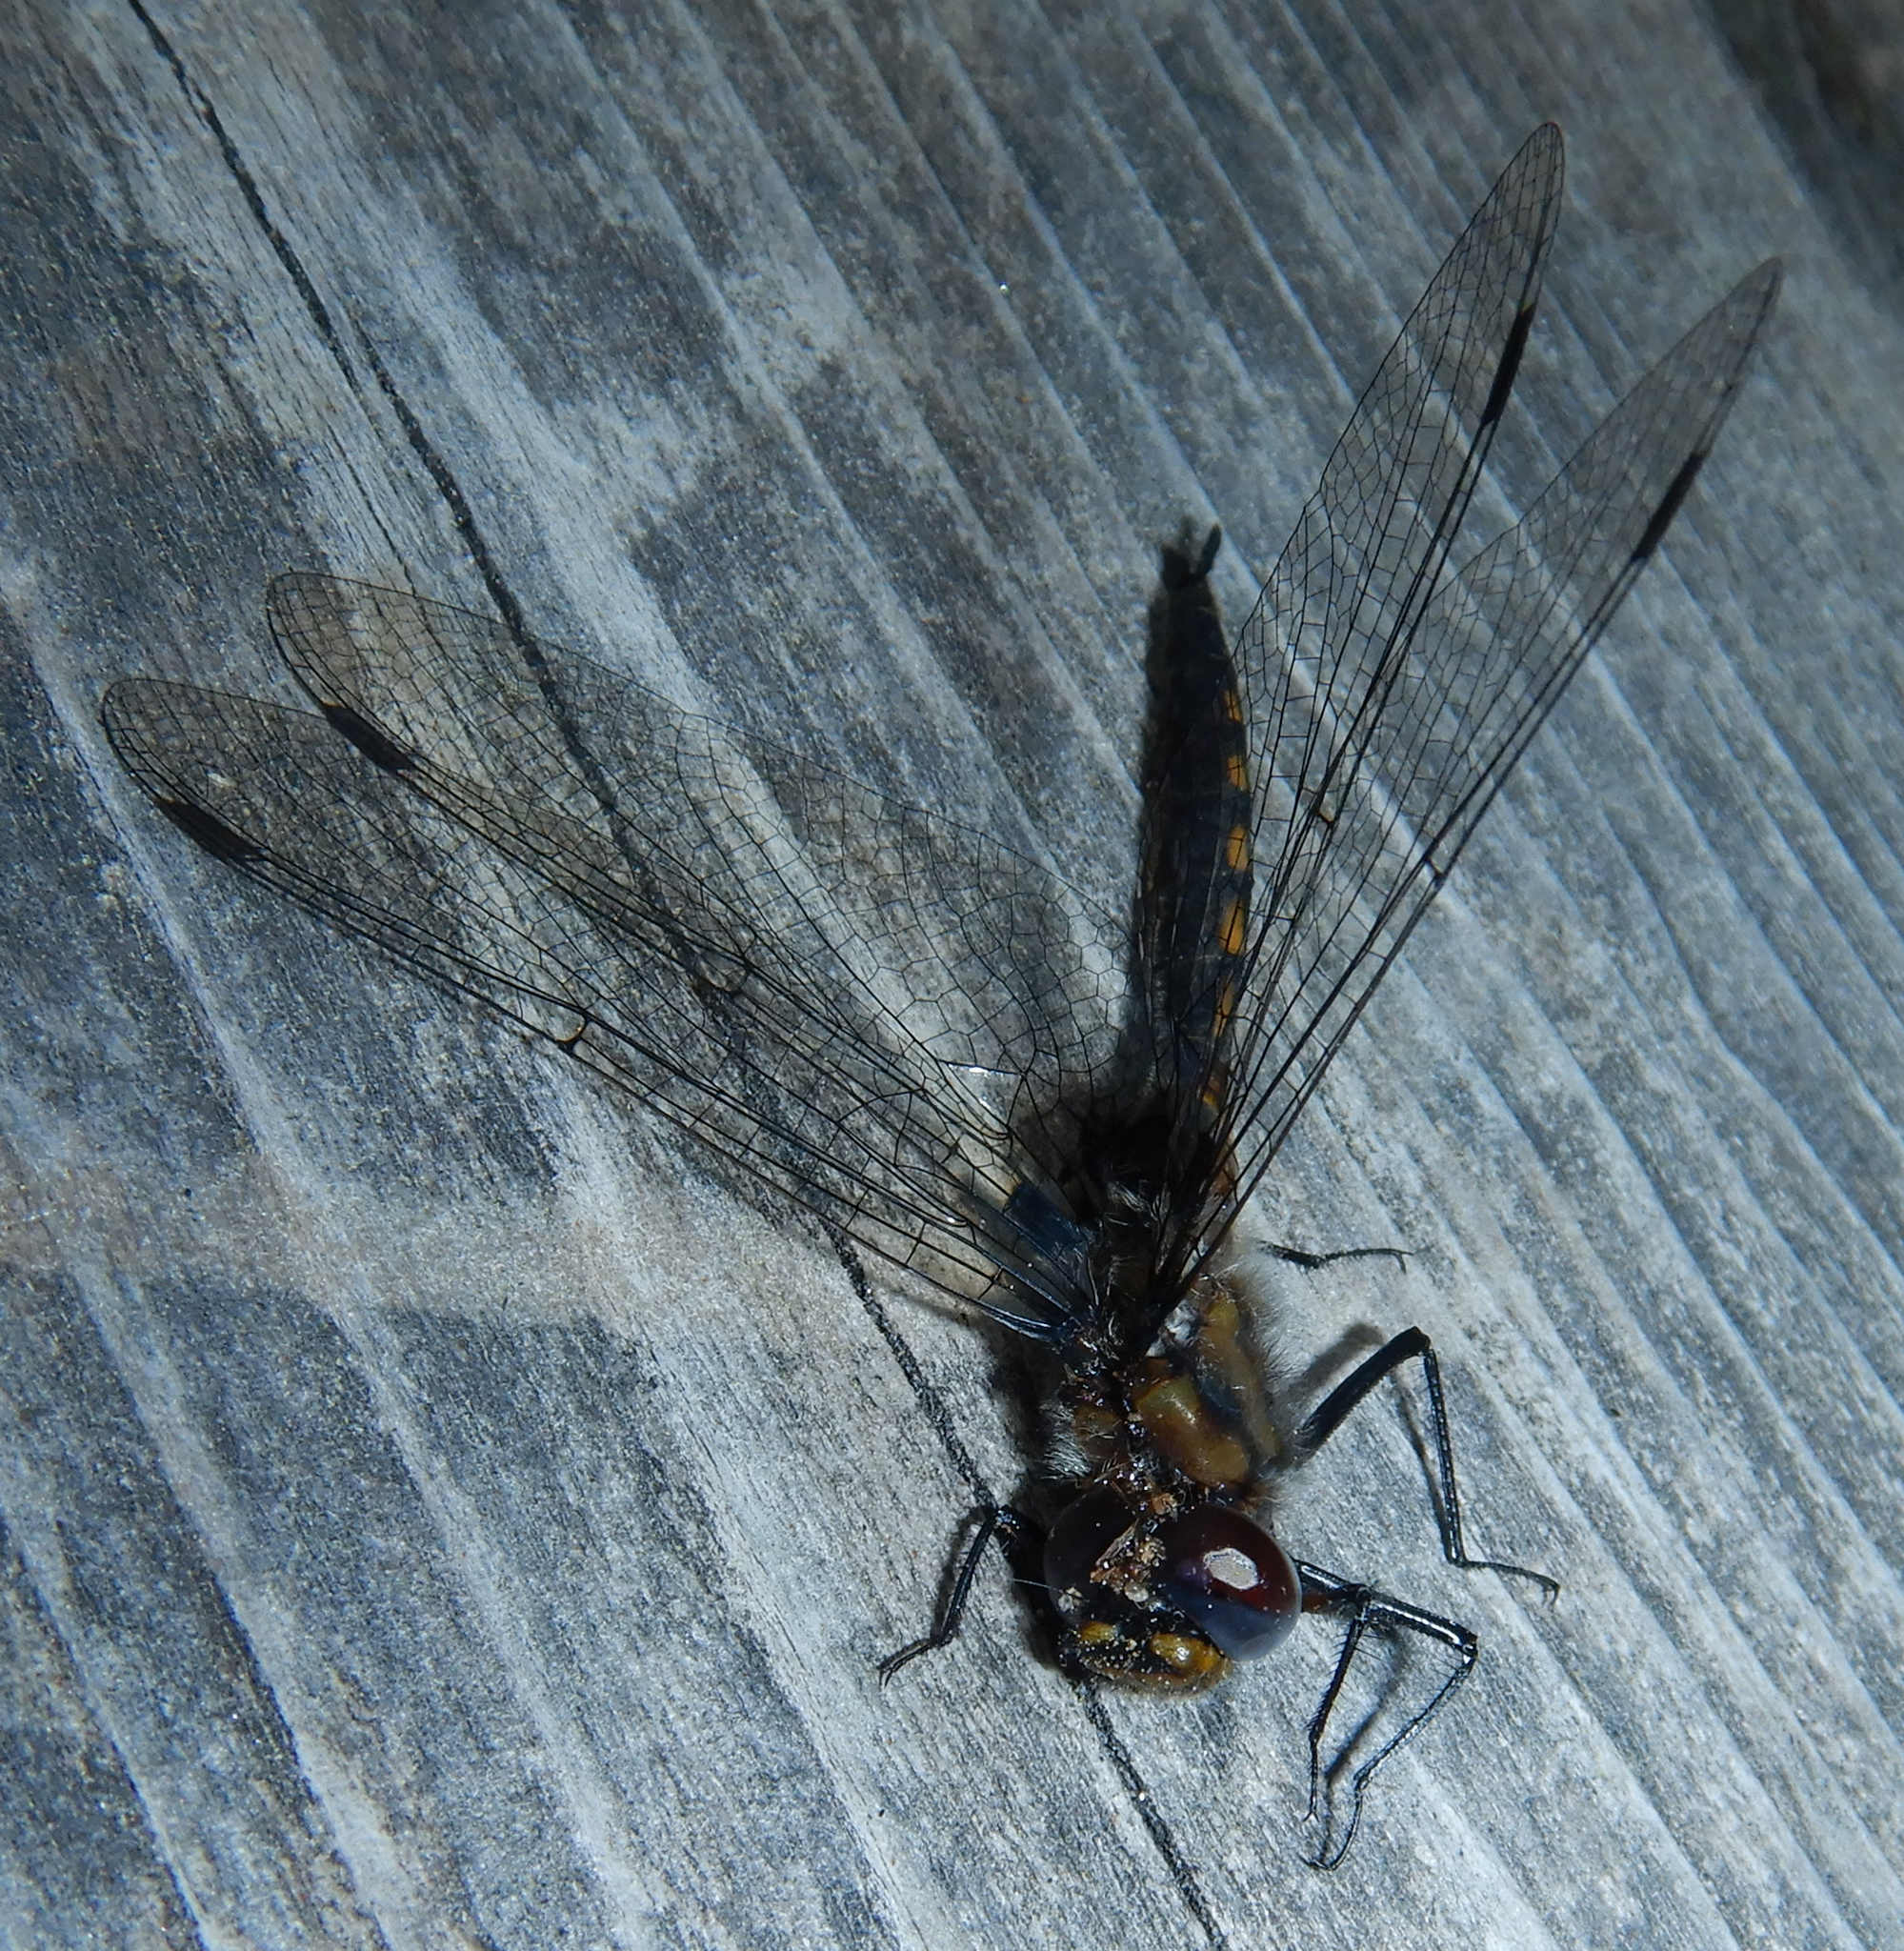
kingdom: Animalia
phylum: Arthropoda
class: Insecta
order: Odonata
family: Corduliidae
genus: Epitheca
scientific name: Epitheca spinigera
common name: Spiny baskettail
